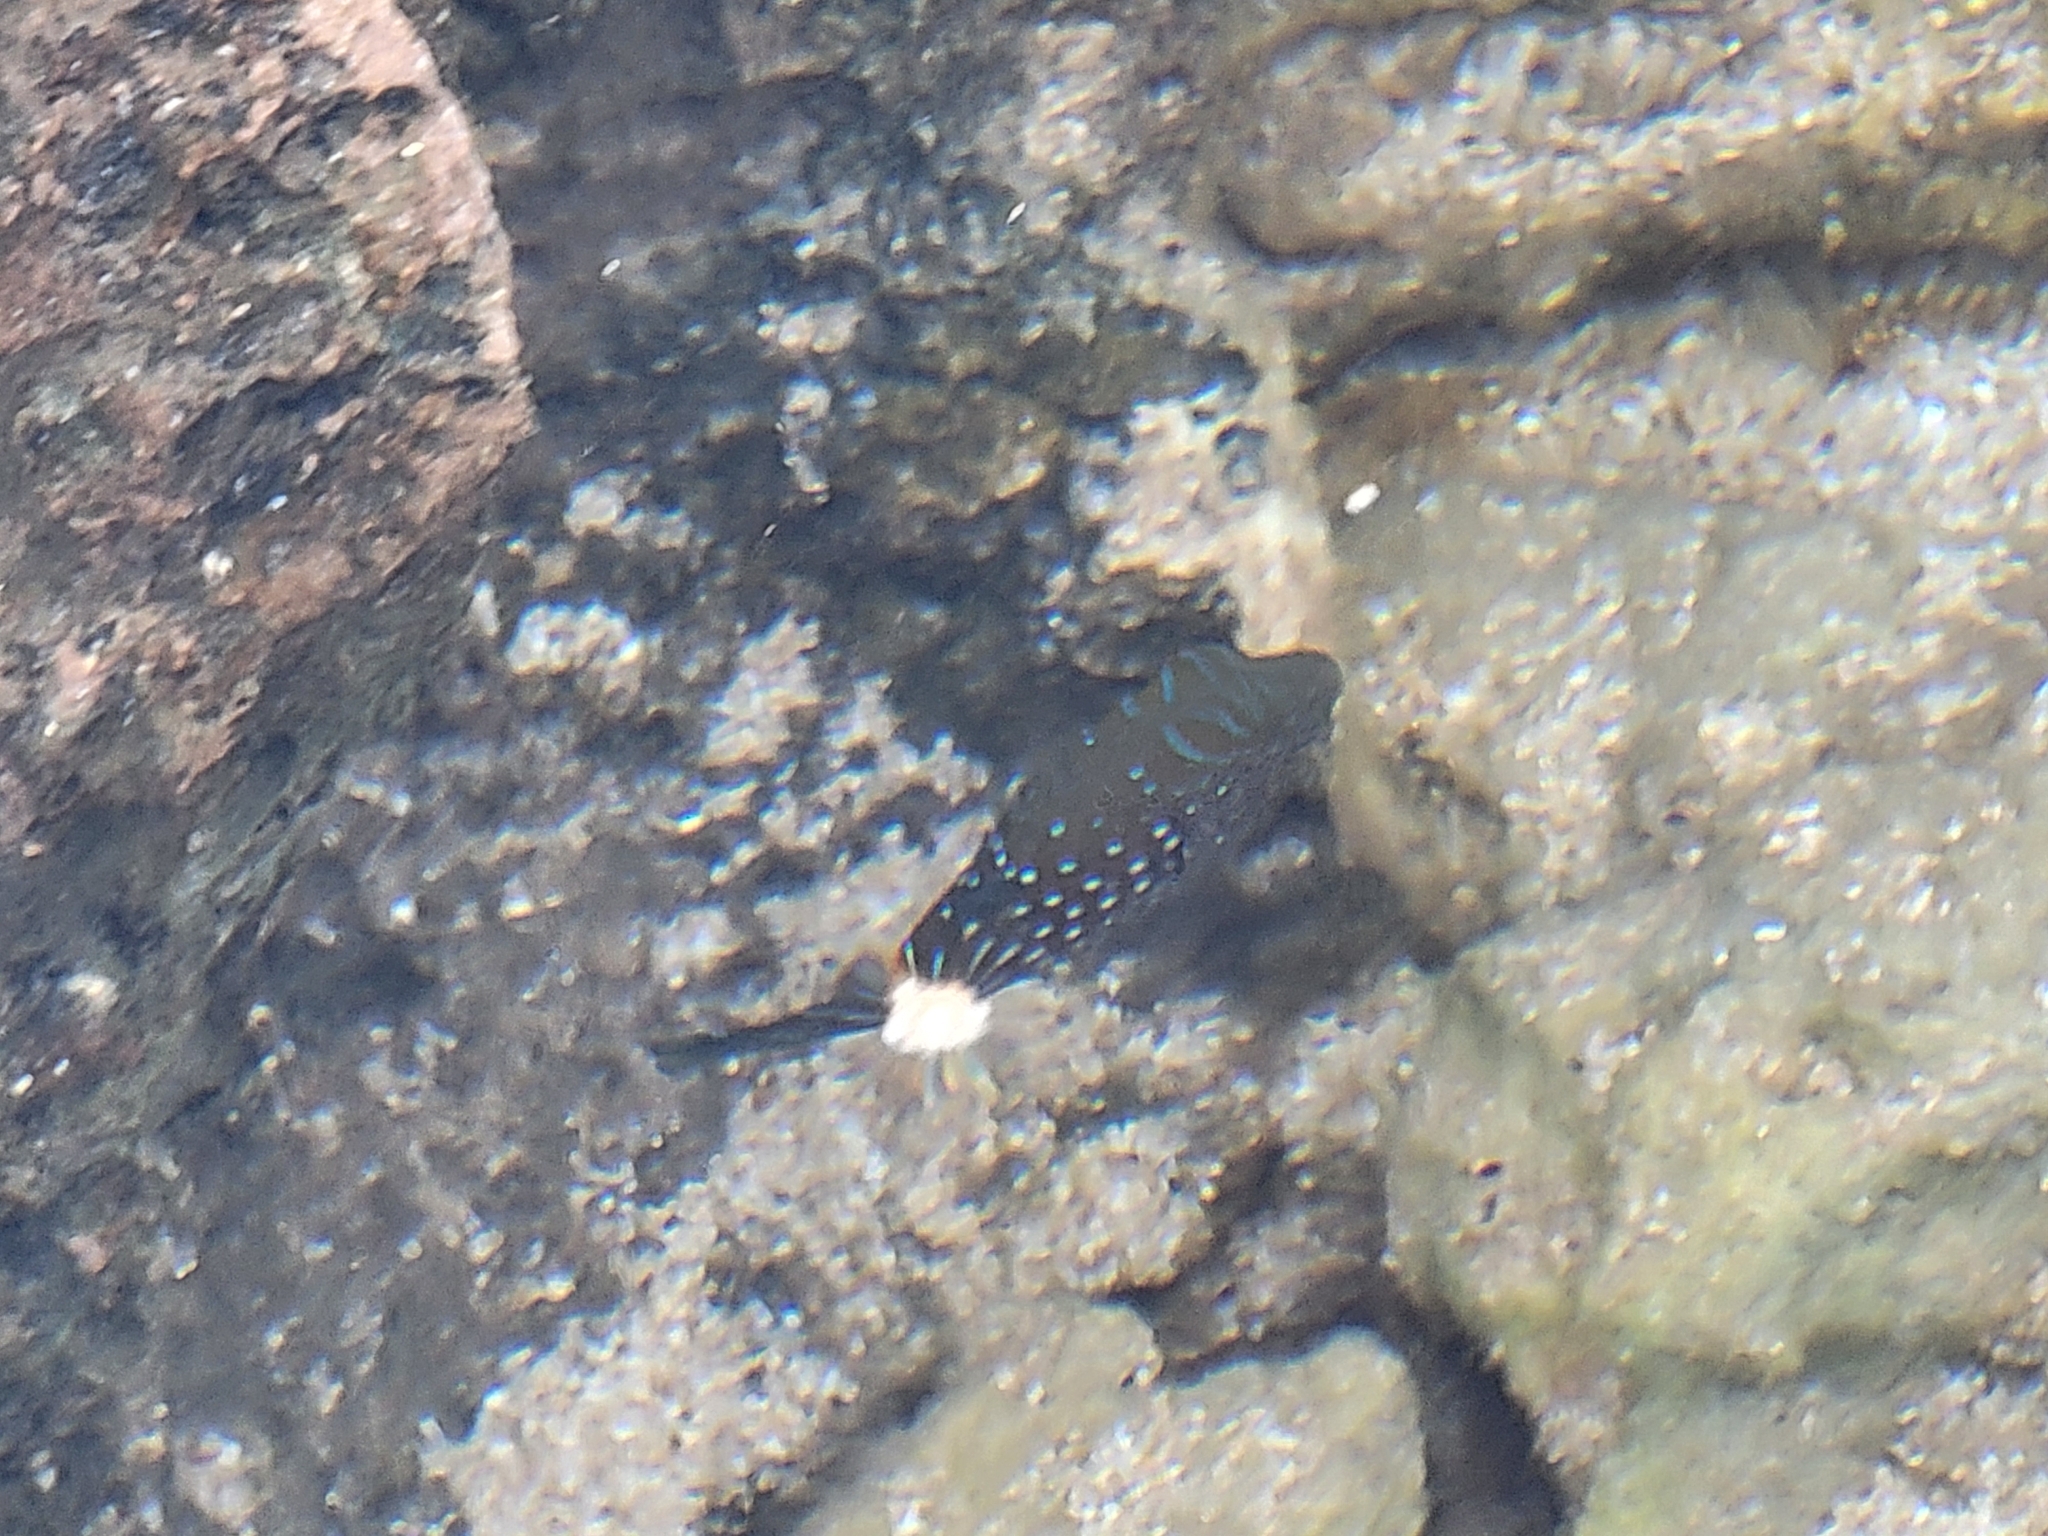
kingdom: Animalia
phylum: Chordata
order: Tetraodontiformes
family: Tetraodontidae
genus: Canthigaster
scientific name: Canthigaster amboinensis
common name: Ambon pufferfish
